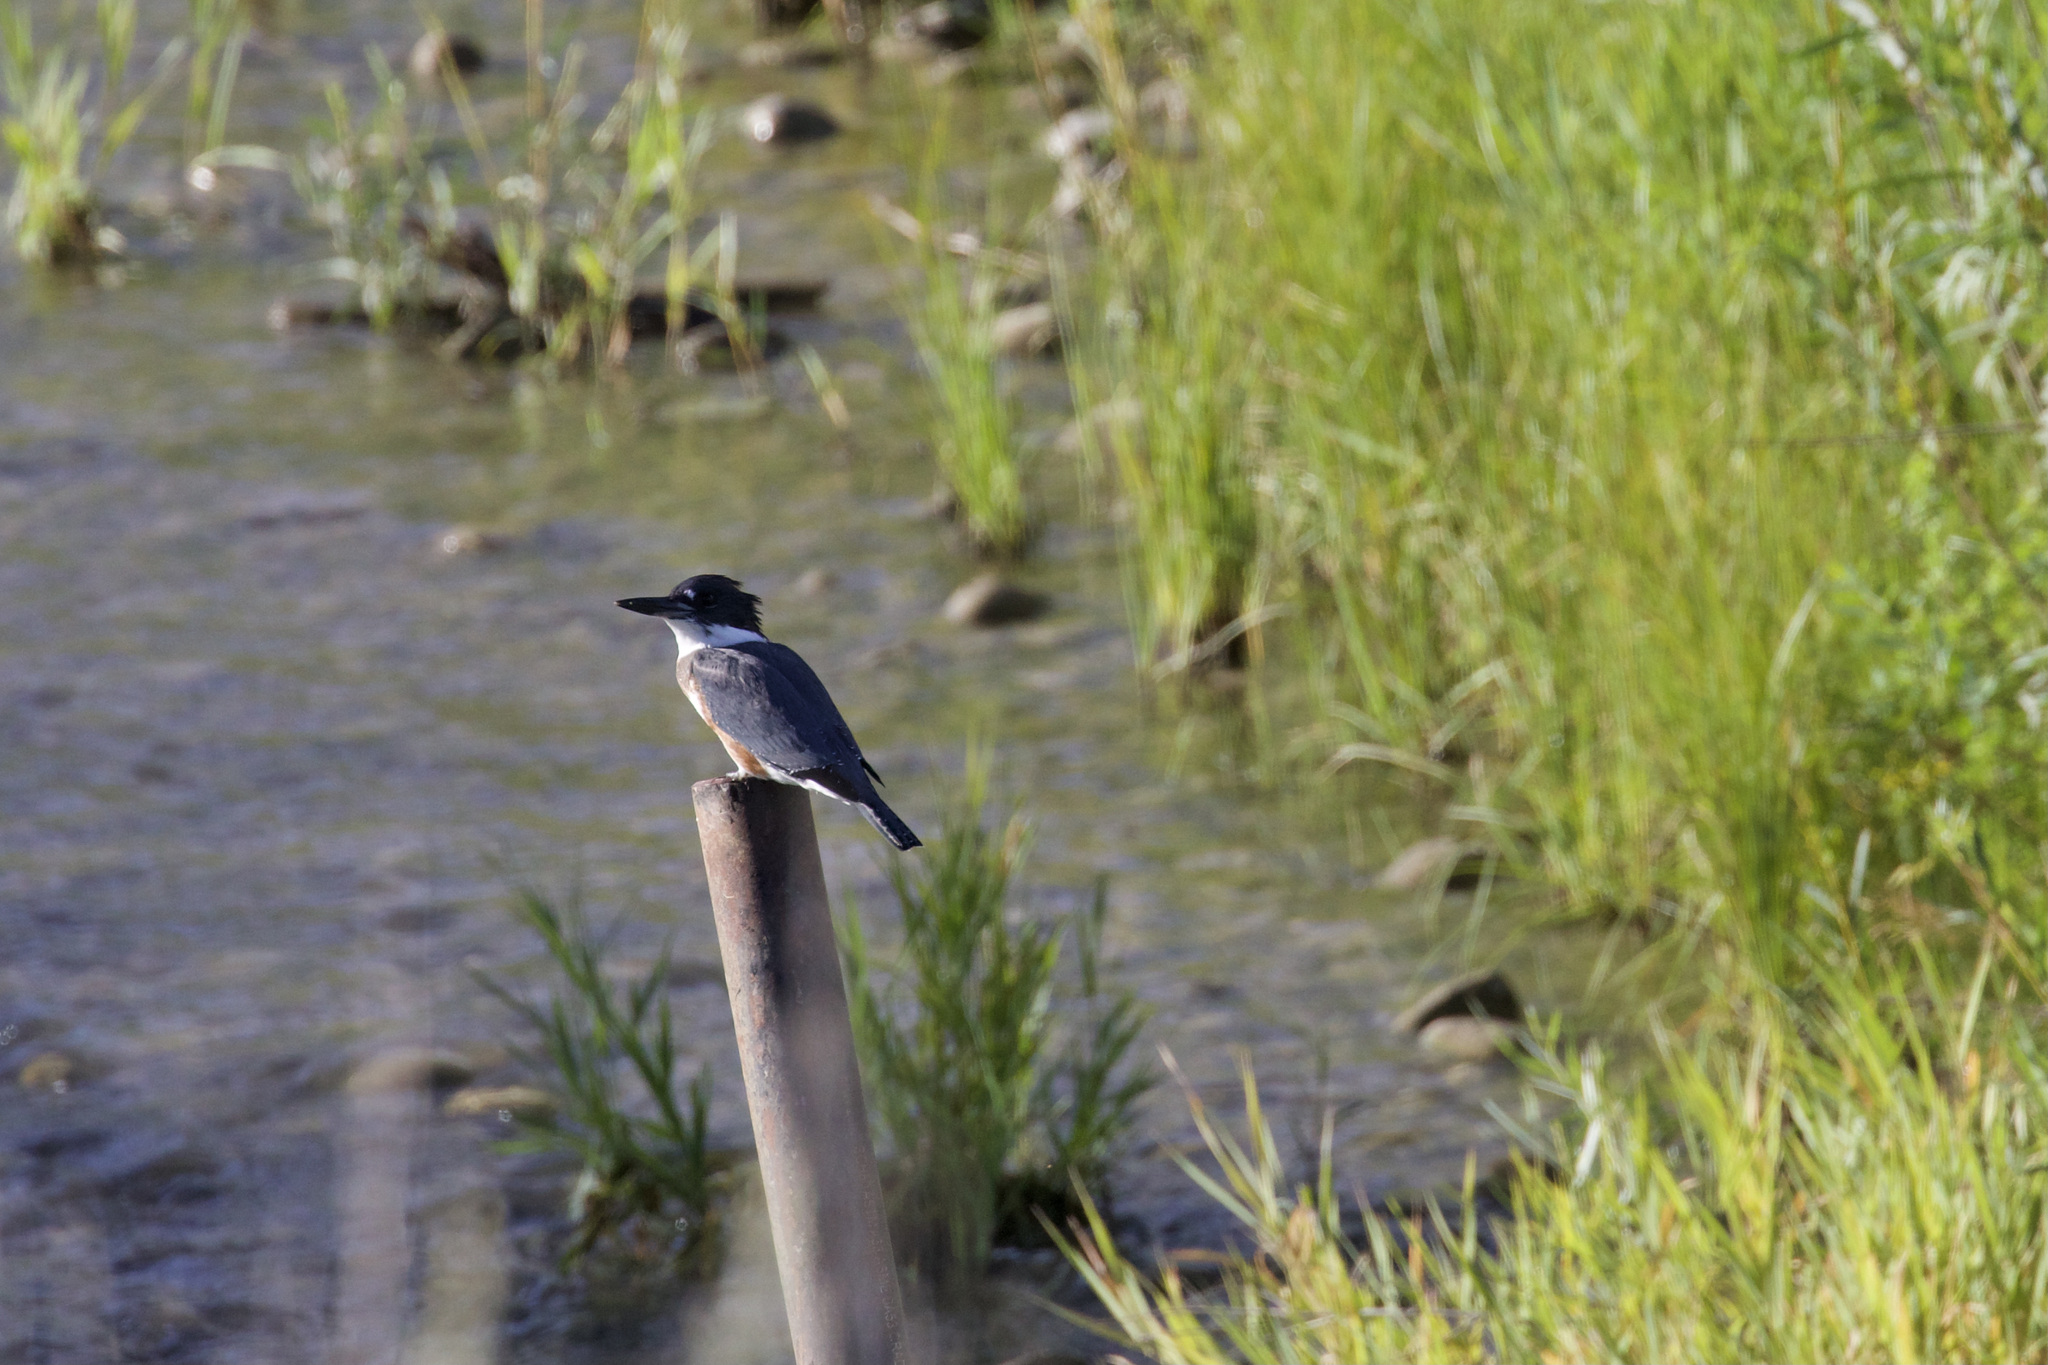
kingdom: Animalia
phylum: Chordata
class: Aves
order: Coraciiformes
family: Alcedinidae
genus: Megaceryle
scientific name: Megaceryle alcyon
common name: Belted kingfisher
